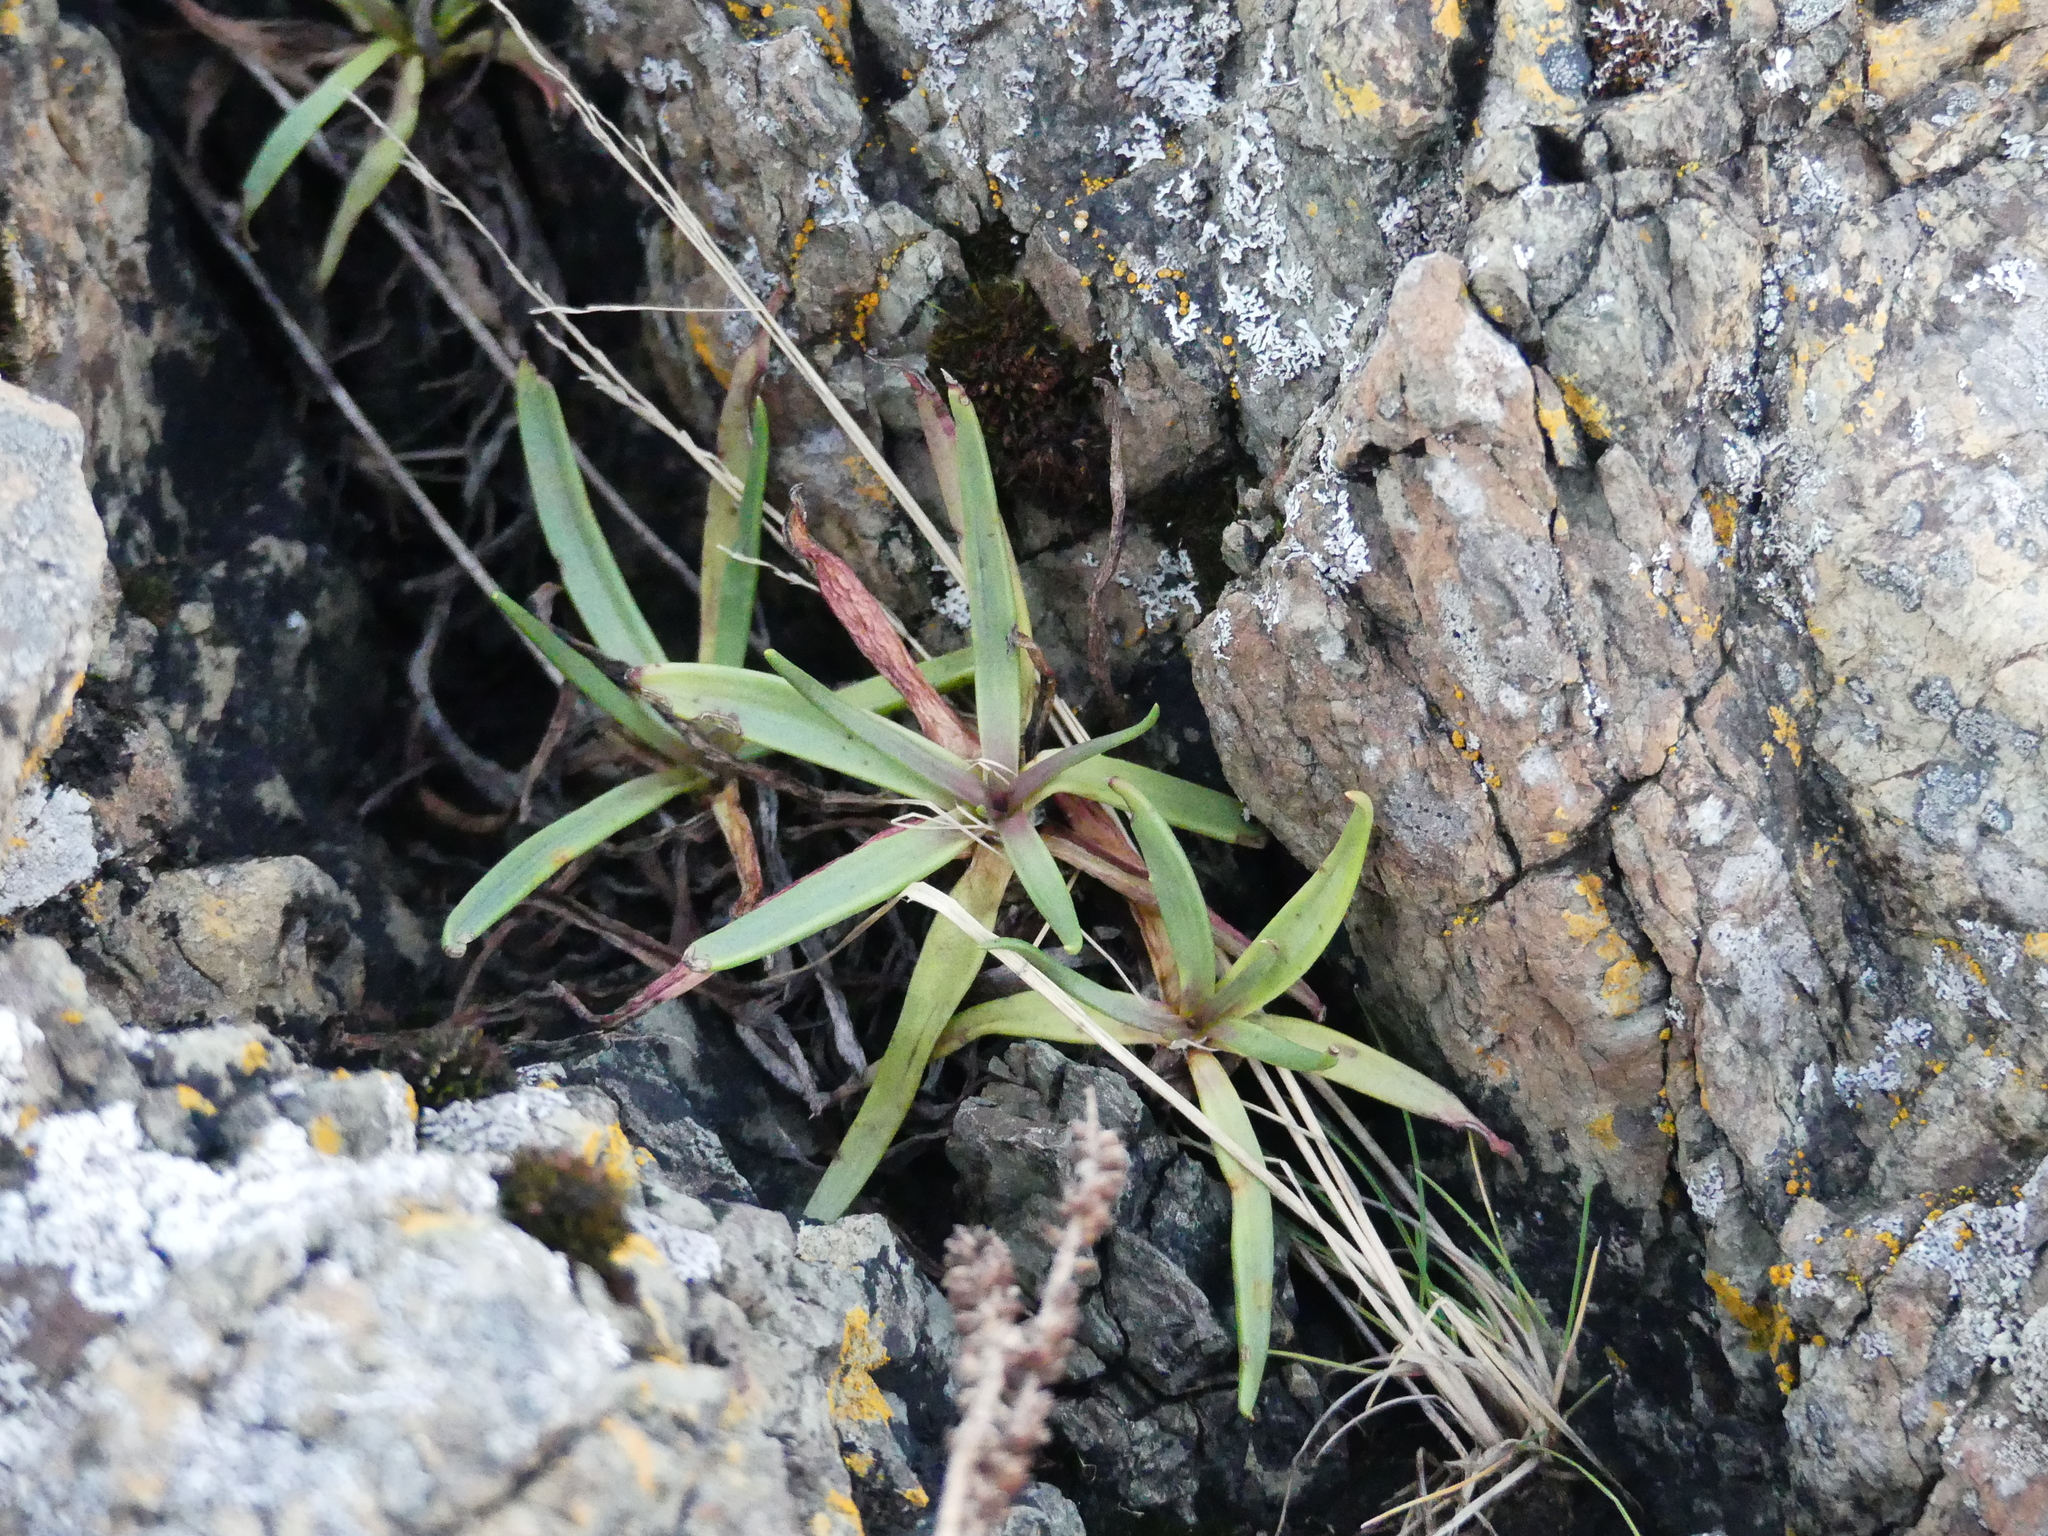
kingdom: Plantae
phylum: Tracheophyta
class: Magnoliopsida
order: Lamiales
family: Plantaginaceae
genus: Plantago
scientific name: Plantago maritima
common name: Sea plantain
